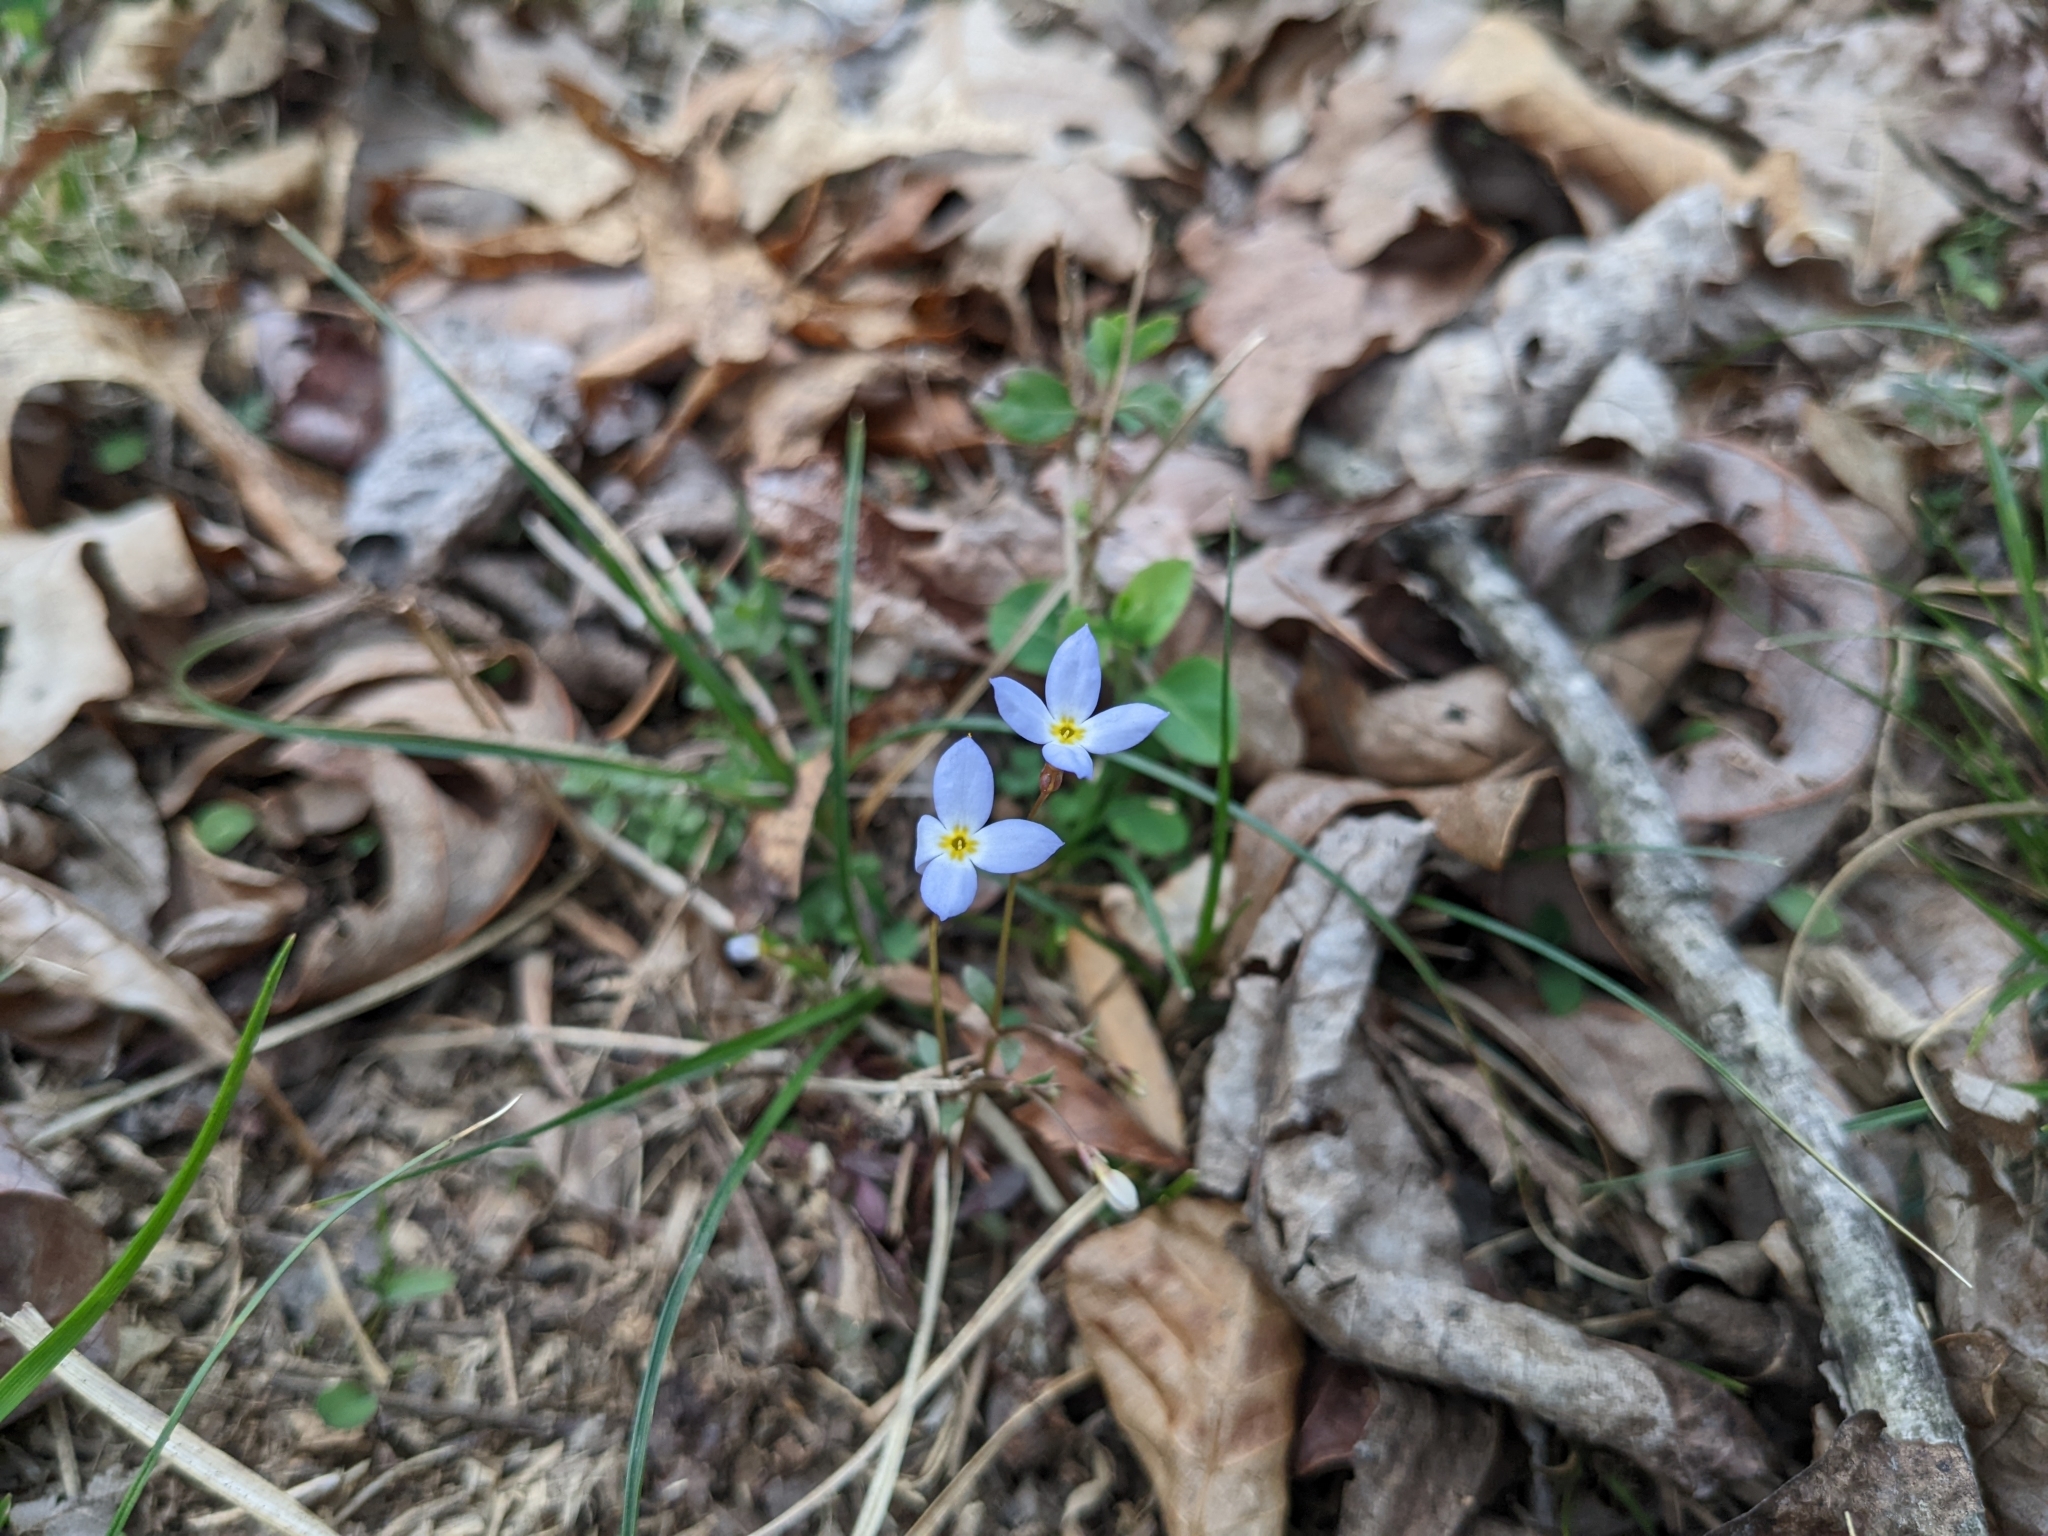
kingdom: Plantae
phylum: Tracheophyta
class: Magnoliopsida
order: Gentianales
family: Rubiaceae
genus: Houstonia
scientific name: Houstonia caerulea
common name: Bluets
